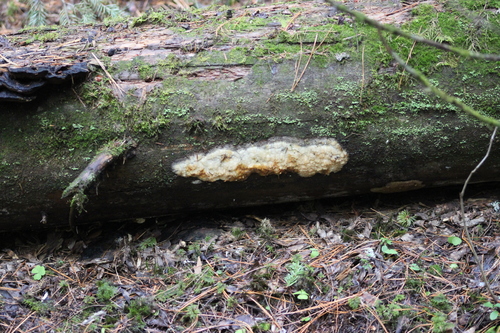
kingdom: Fungi
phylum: Basidiomycota
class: Agaricomycetes
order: Polyporales
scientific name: Polyporales
